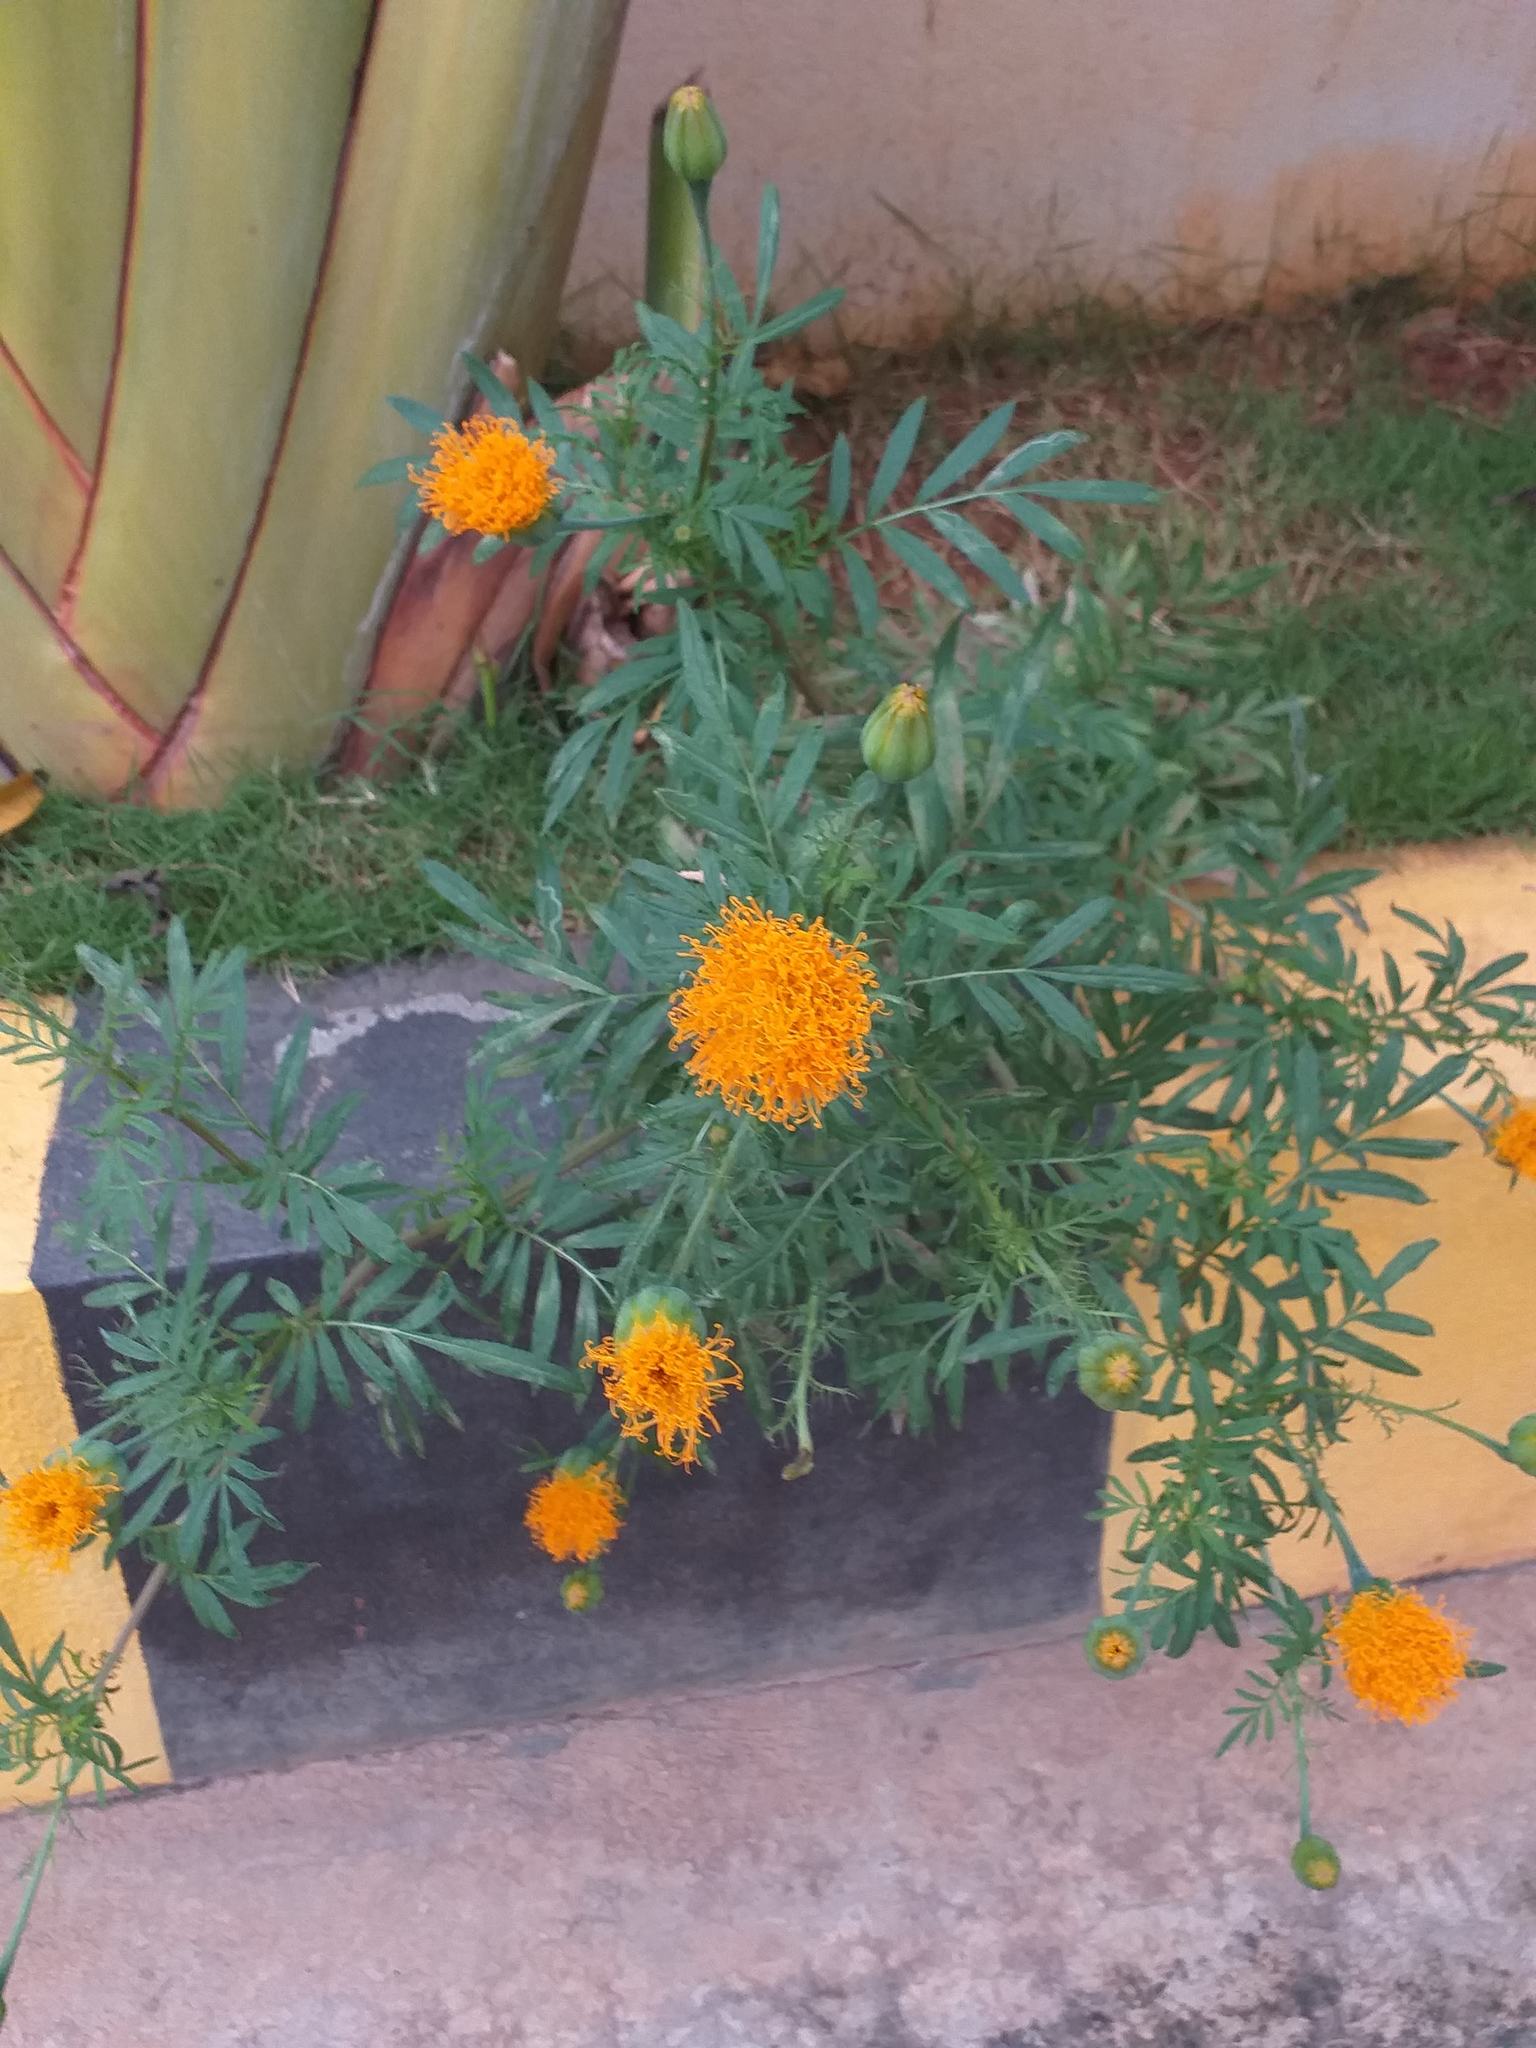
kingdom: Plantae
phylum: Tracheophyta
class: Magnoliopsida
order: Asterales
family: Asteraceae
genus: Tagetes
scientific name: Tagetes erecta
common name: African marigold
